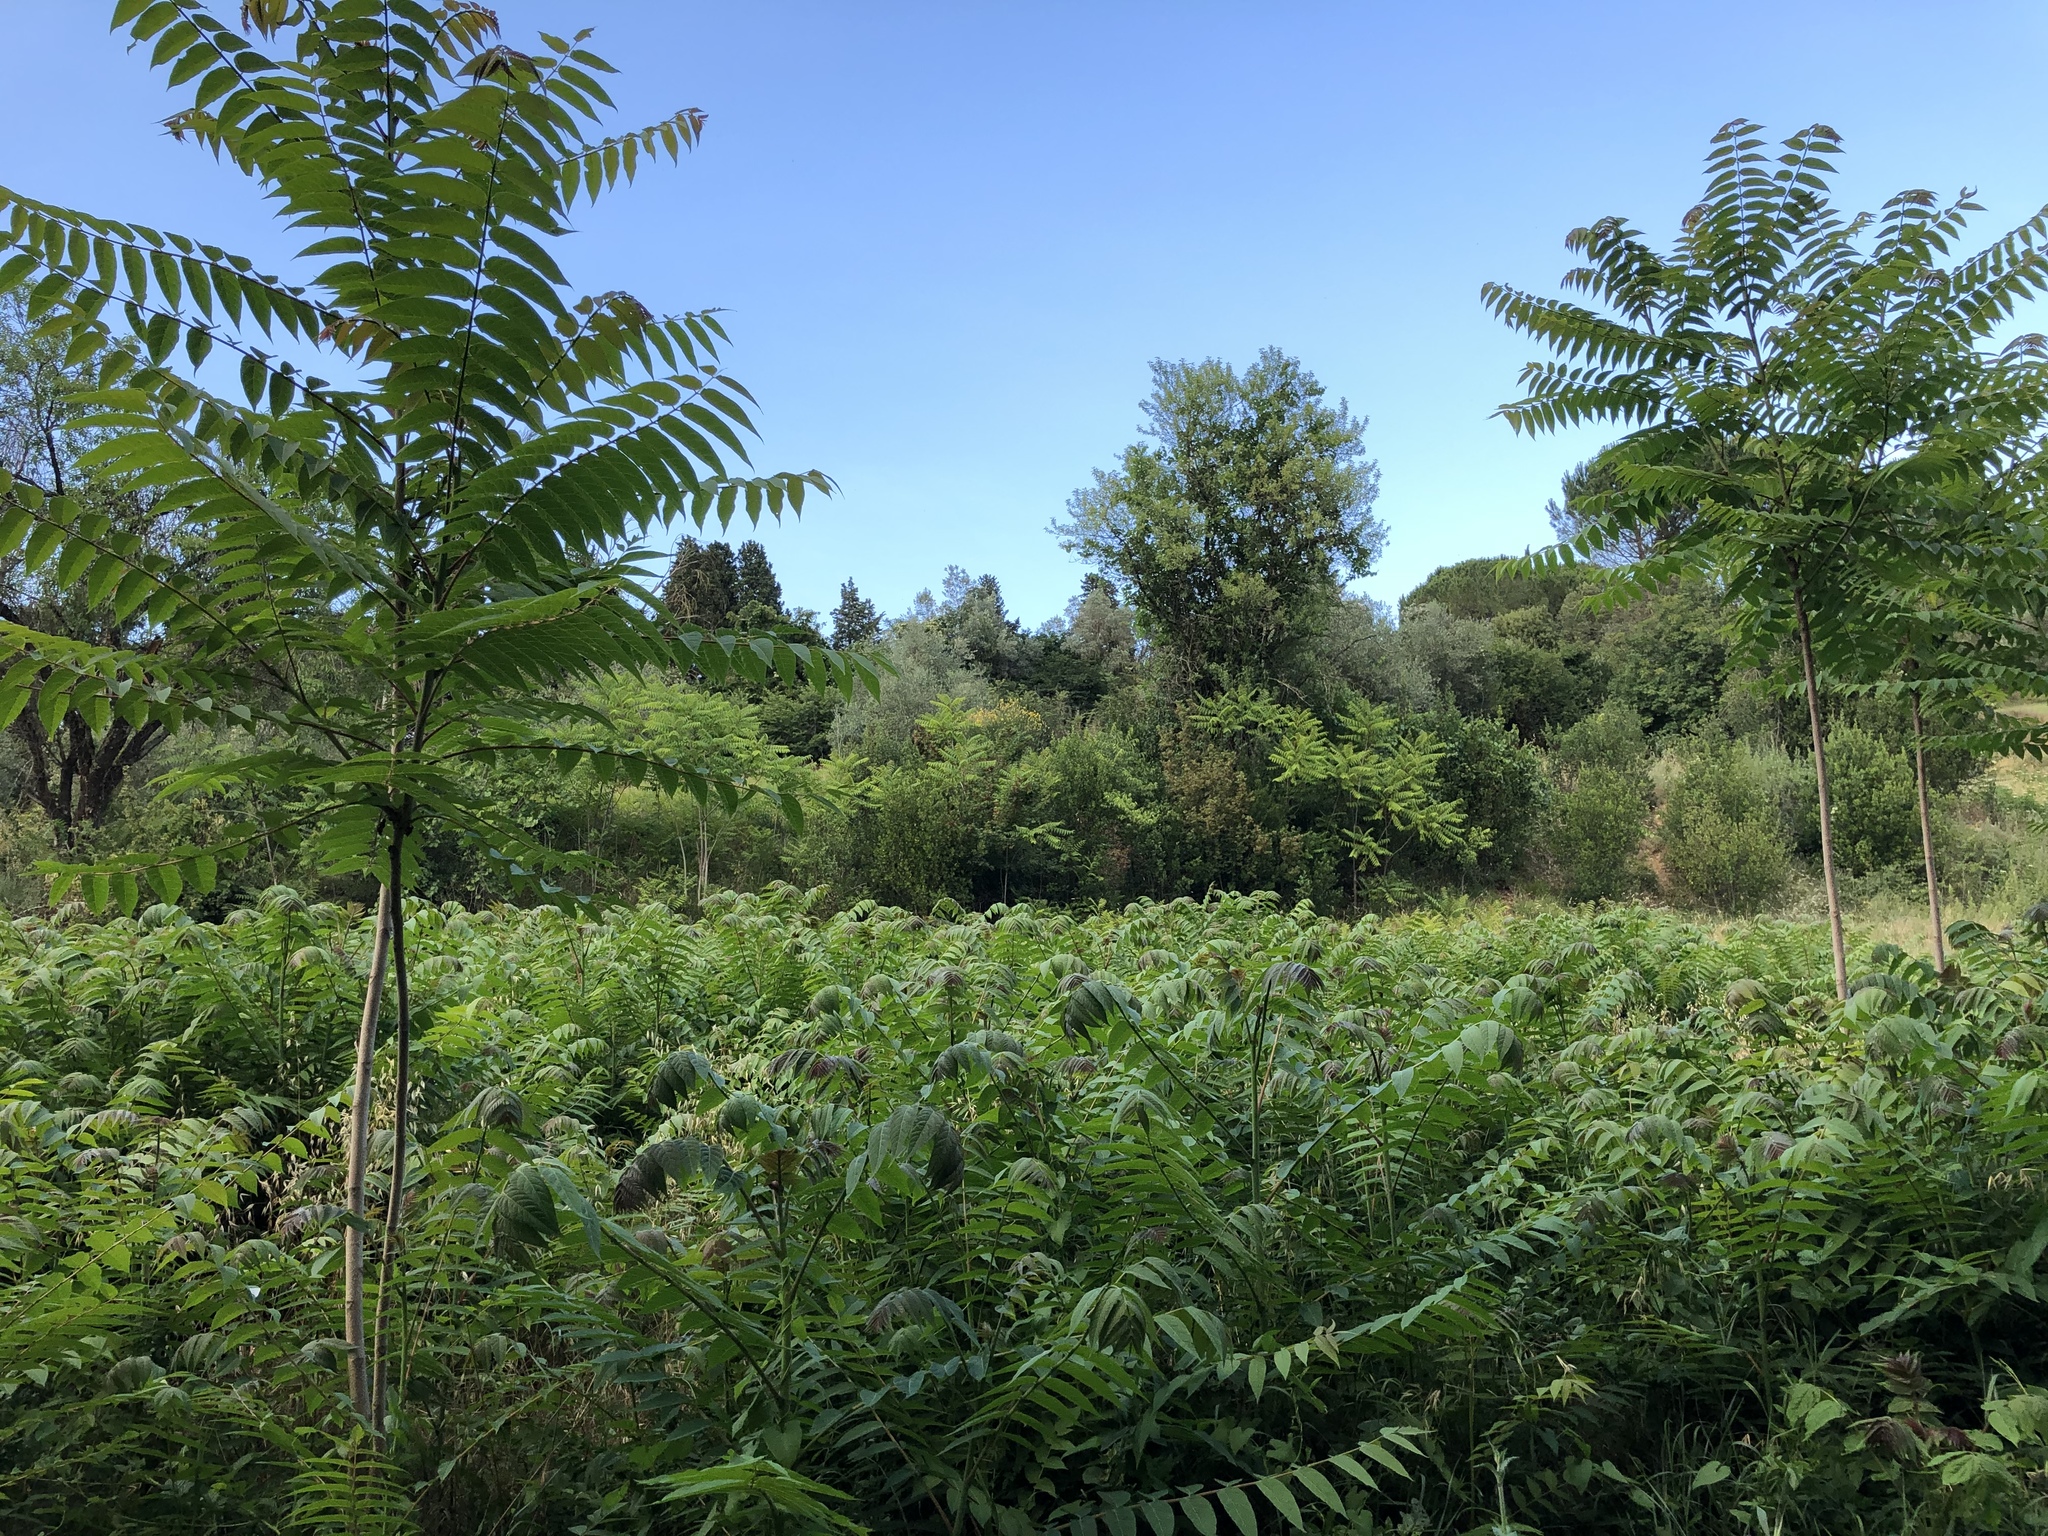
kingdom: Plantae
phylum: Tracheophyta
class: Magnoliopsida
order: Sapindales
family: Simaroubaceae
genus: Ailanthus
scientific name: Ailanthus altissima
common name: Tree-of-heaven
